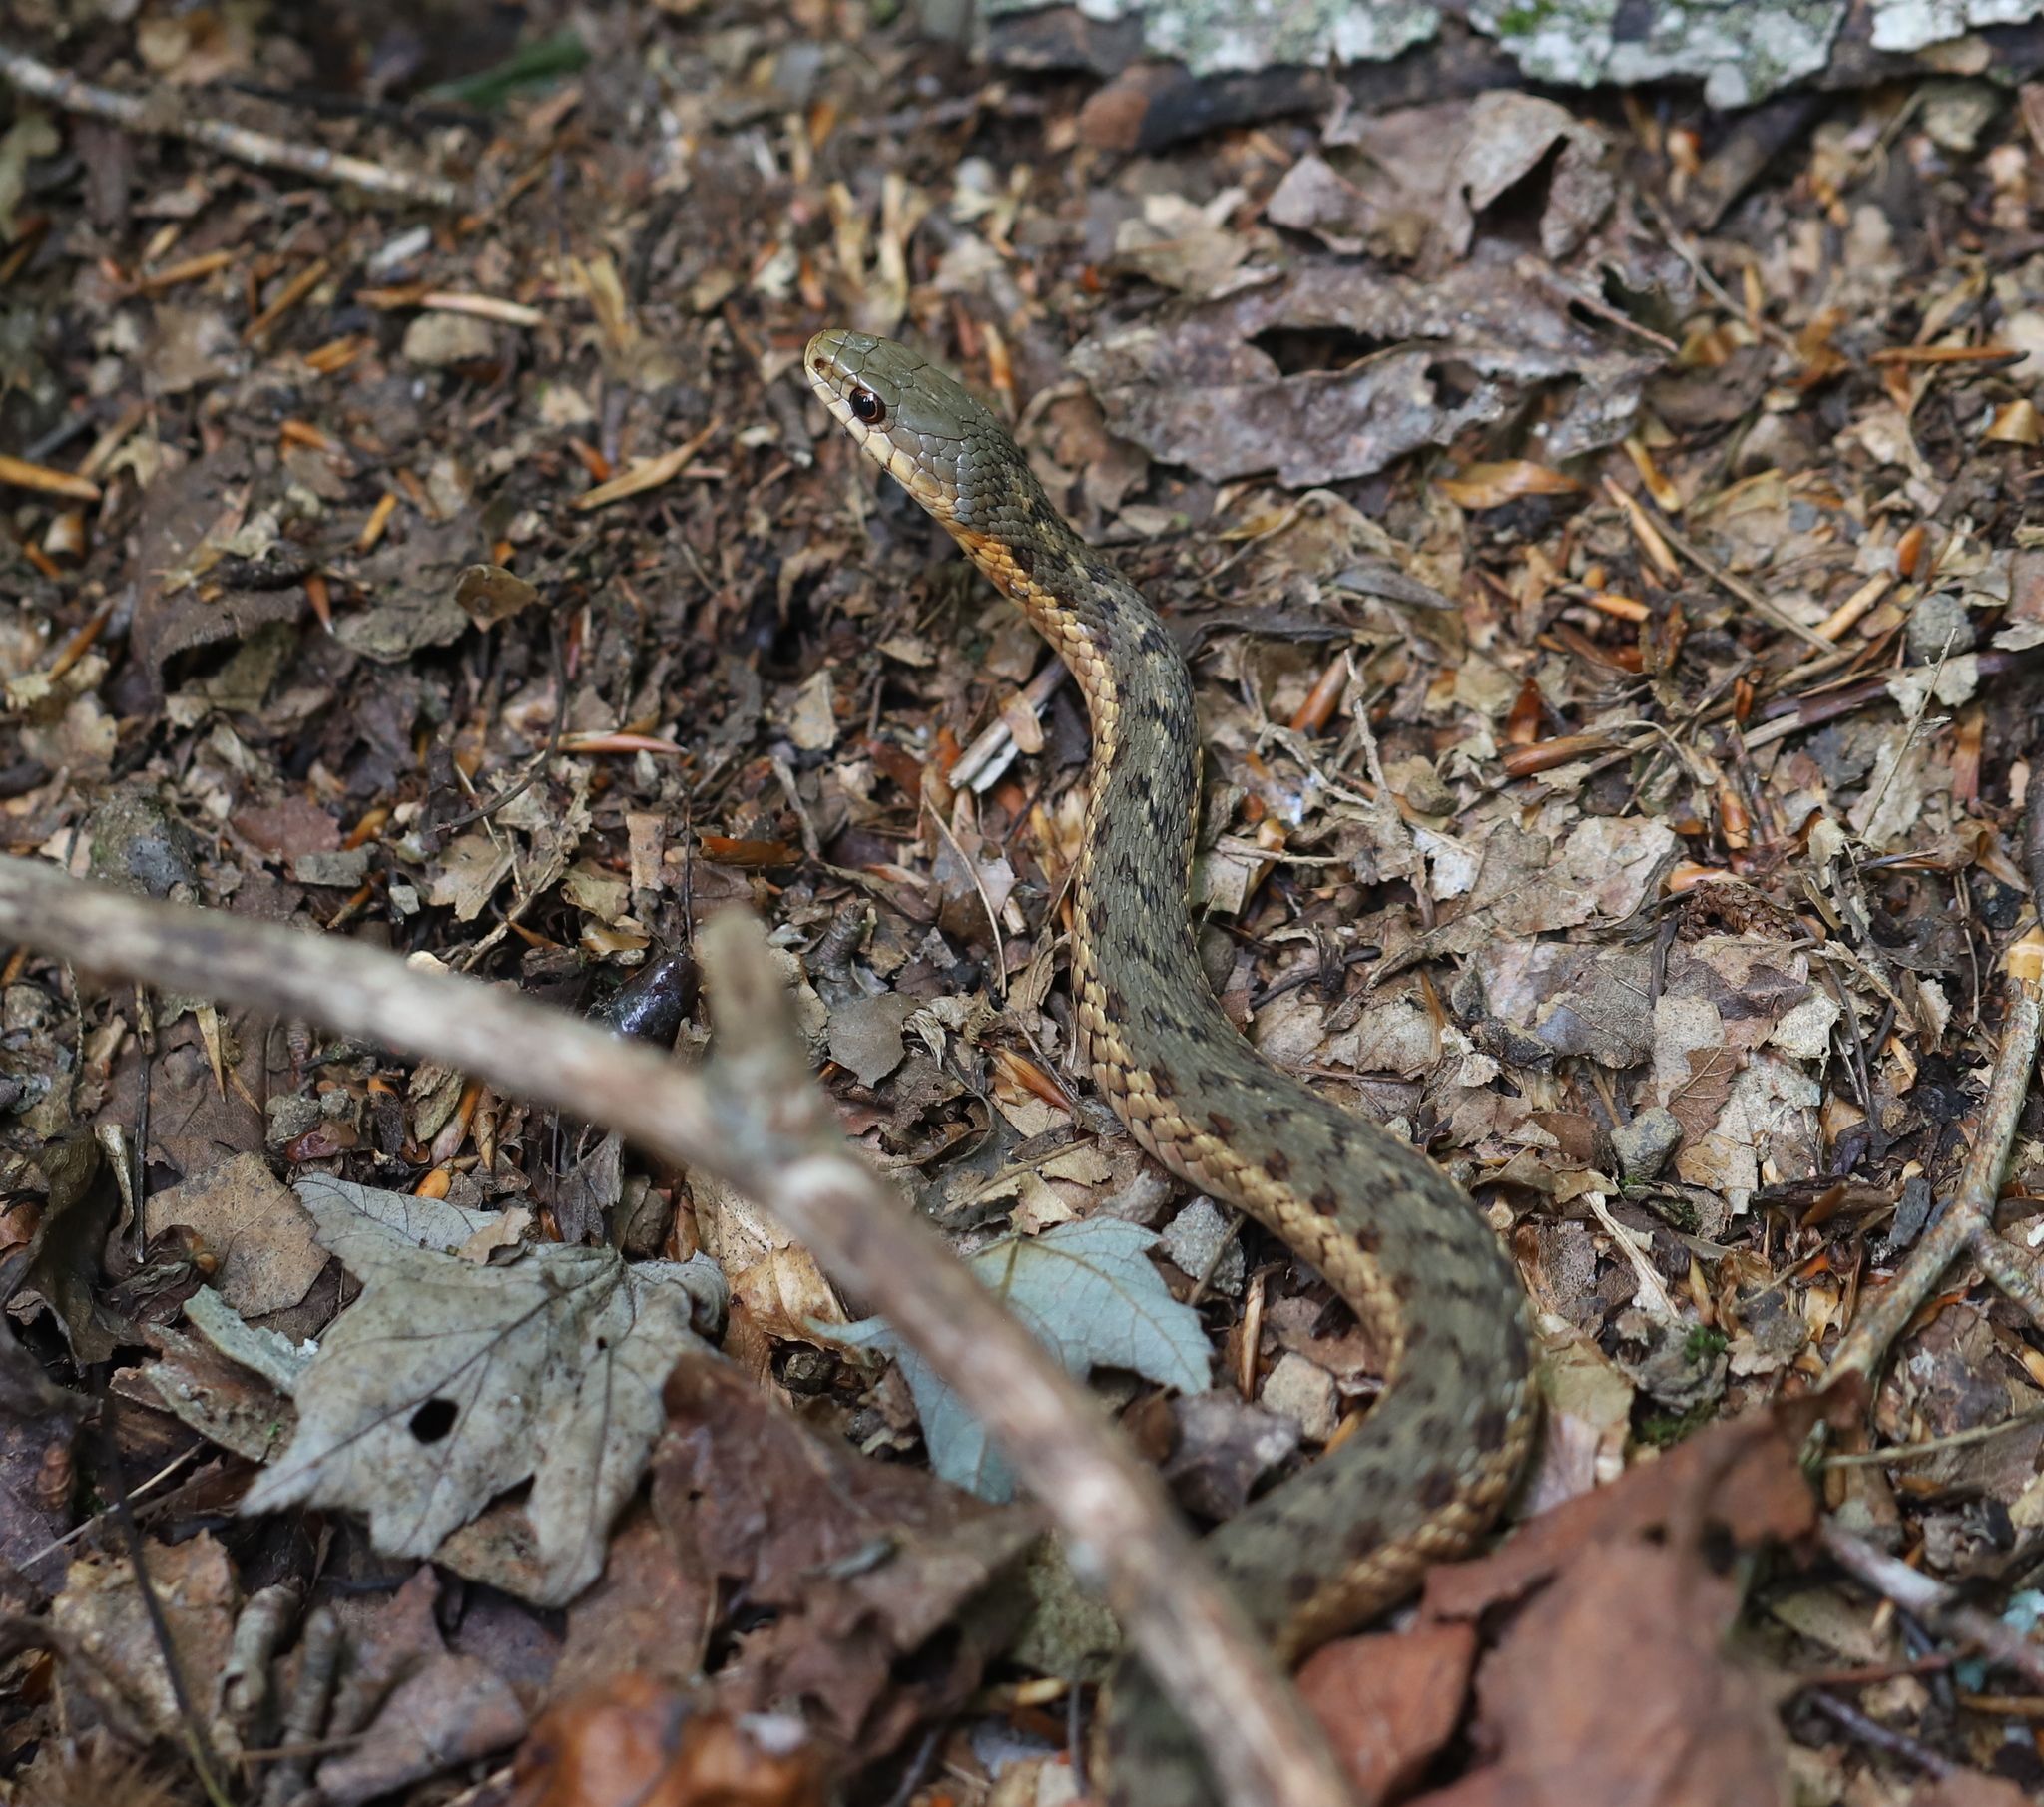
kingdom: Animalia
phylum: Chordata
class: Squamata
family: Colubridae
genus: Thamnophis
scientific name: Thamnophis sirtalis
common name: Common garter snake
